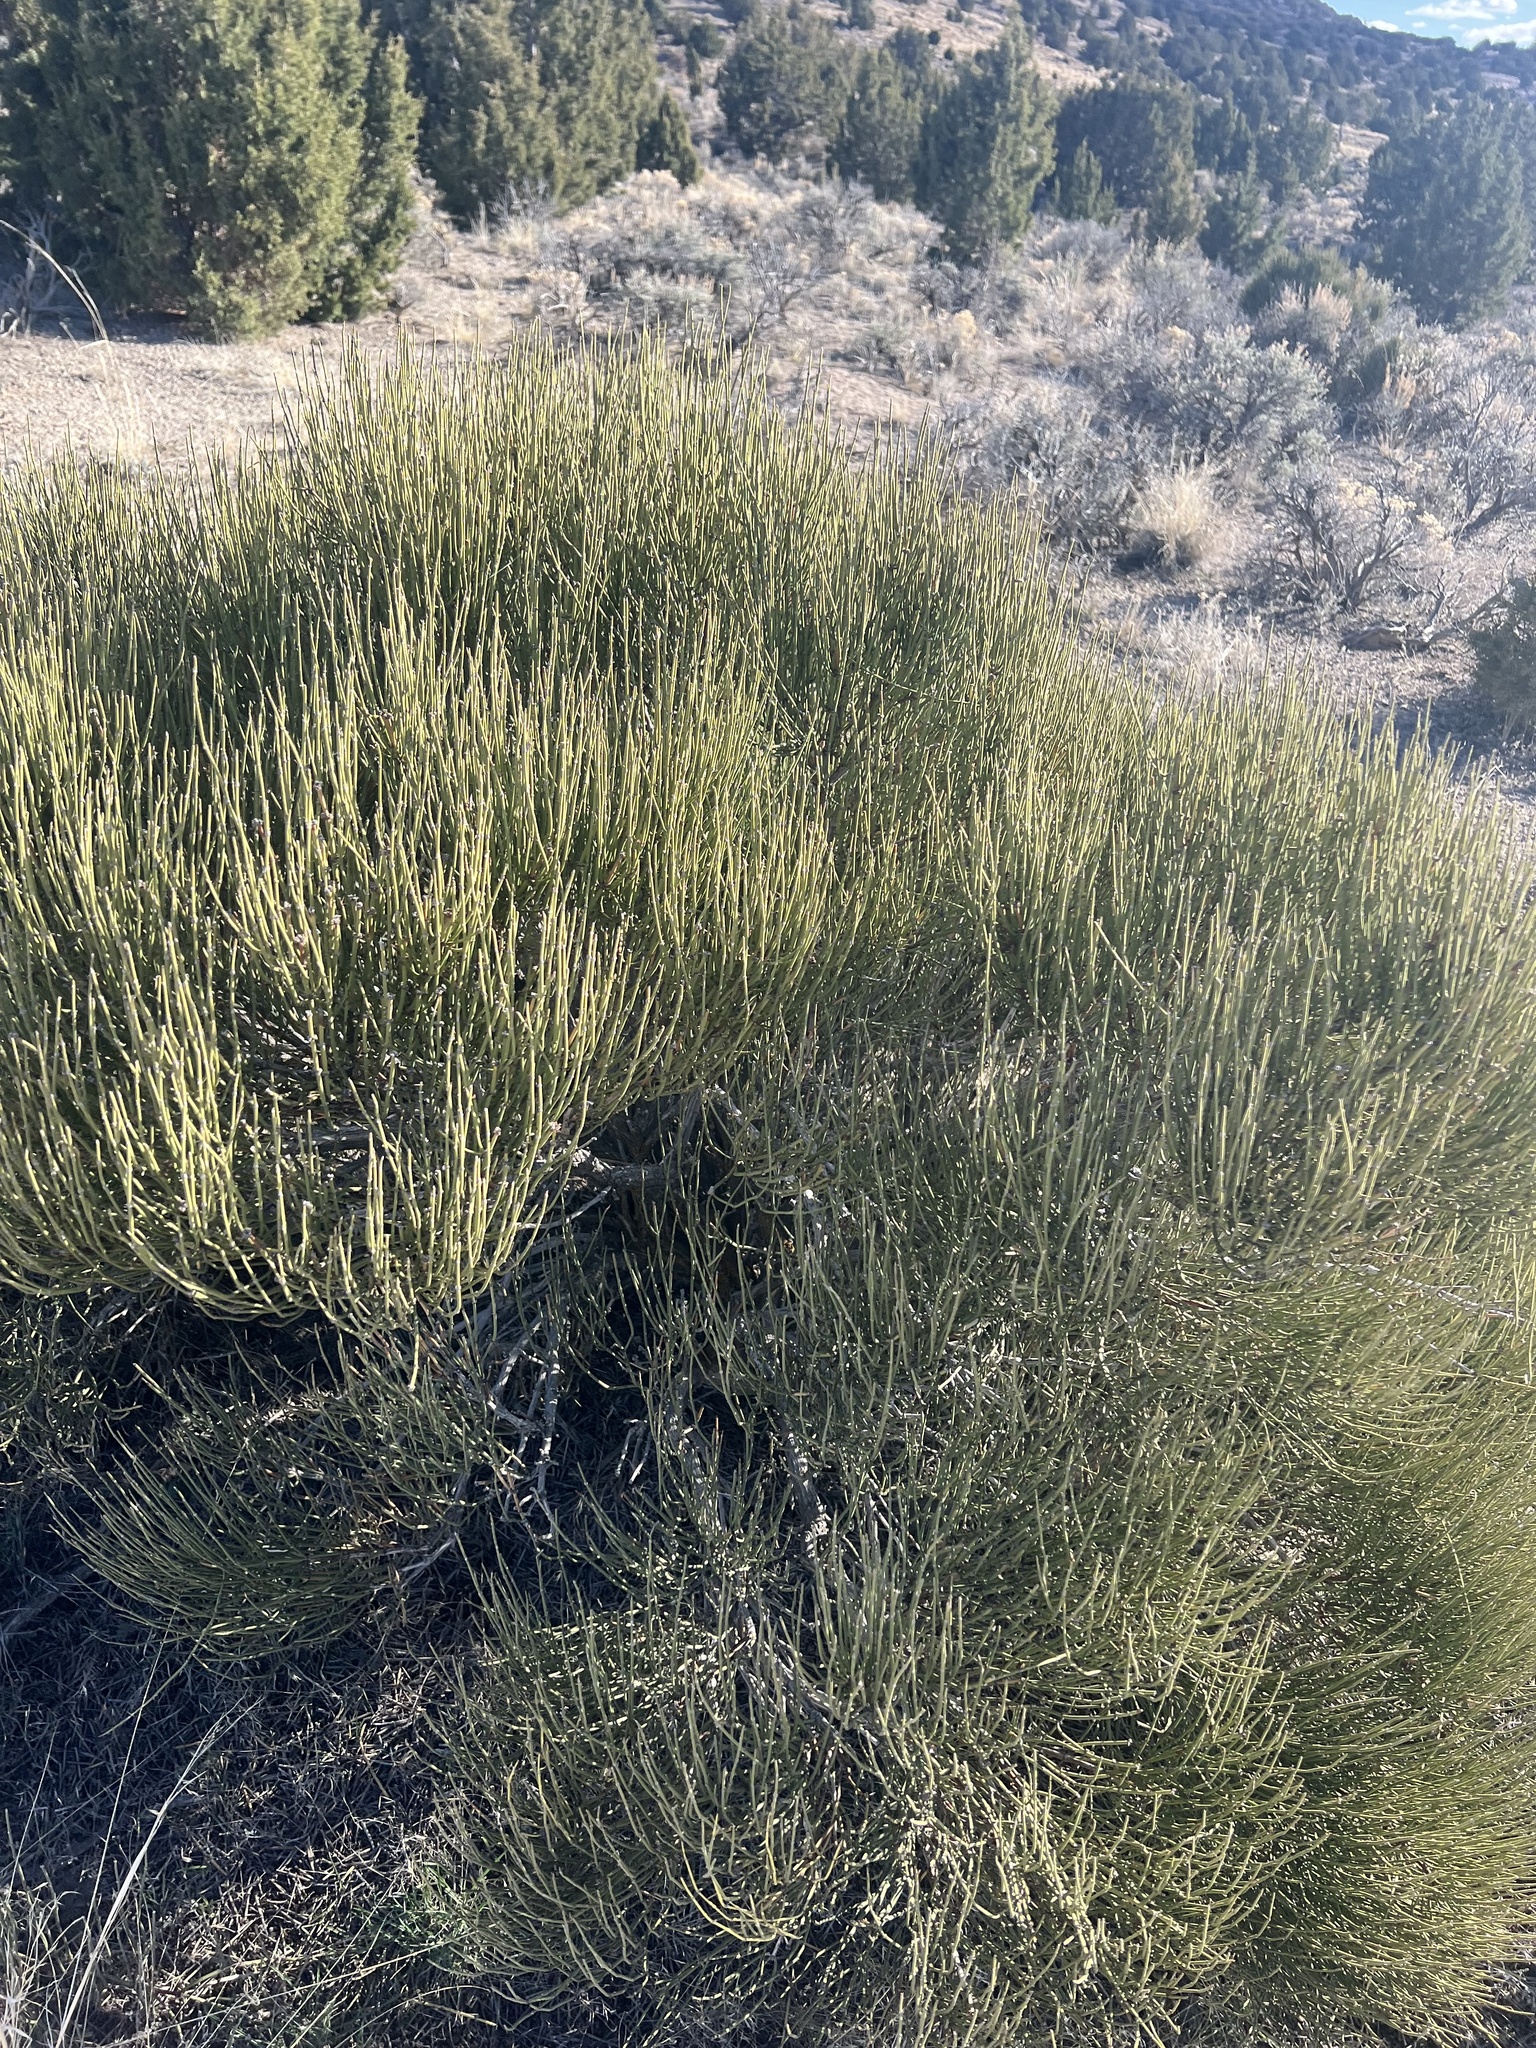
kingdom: Plantae
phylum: Tracheophyta
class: Gnetopsida
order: Ephedrales
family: Ephedraceae
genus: Ephedra
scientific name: Ephedra viridis
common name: Green ephedra
